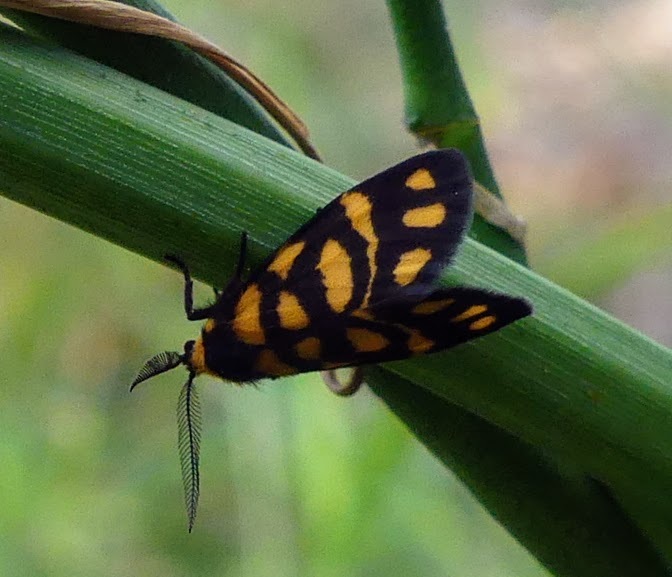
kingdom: Animalia
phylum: Arthropoda
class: Insecta
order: Lepidoptera
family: Erebidae
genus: Asura
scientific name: Asura lydia
